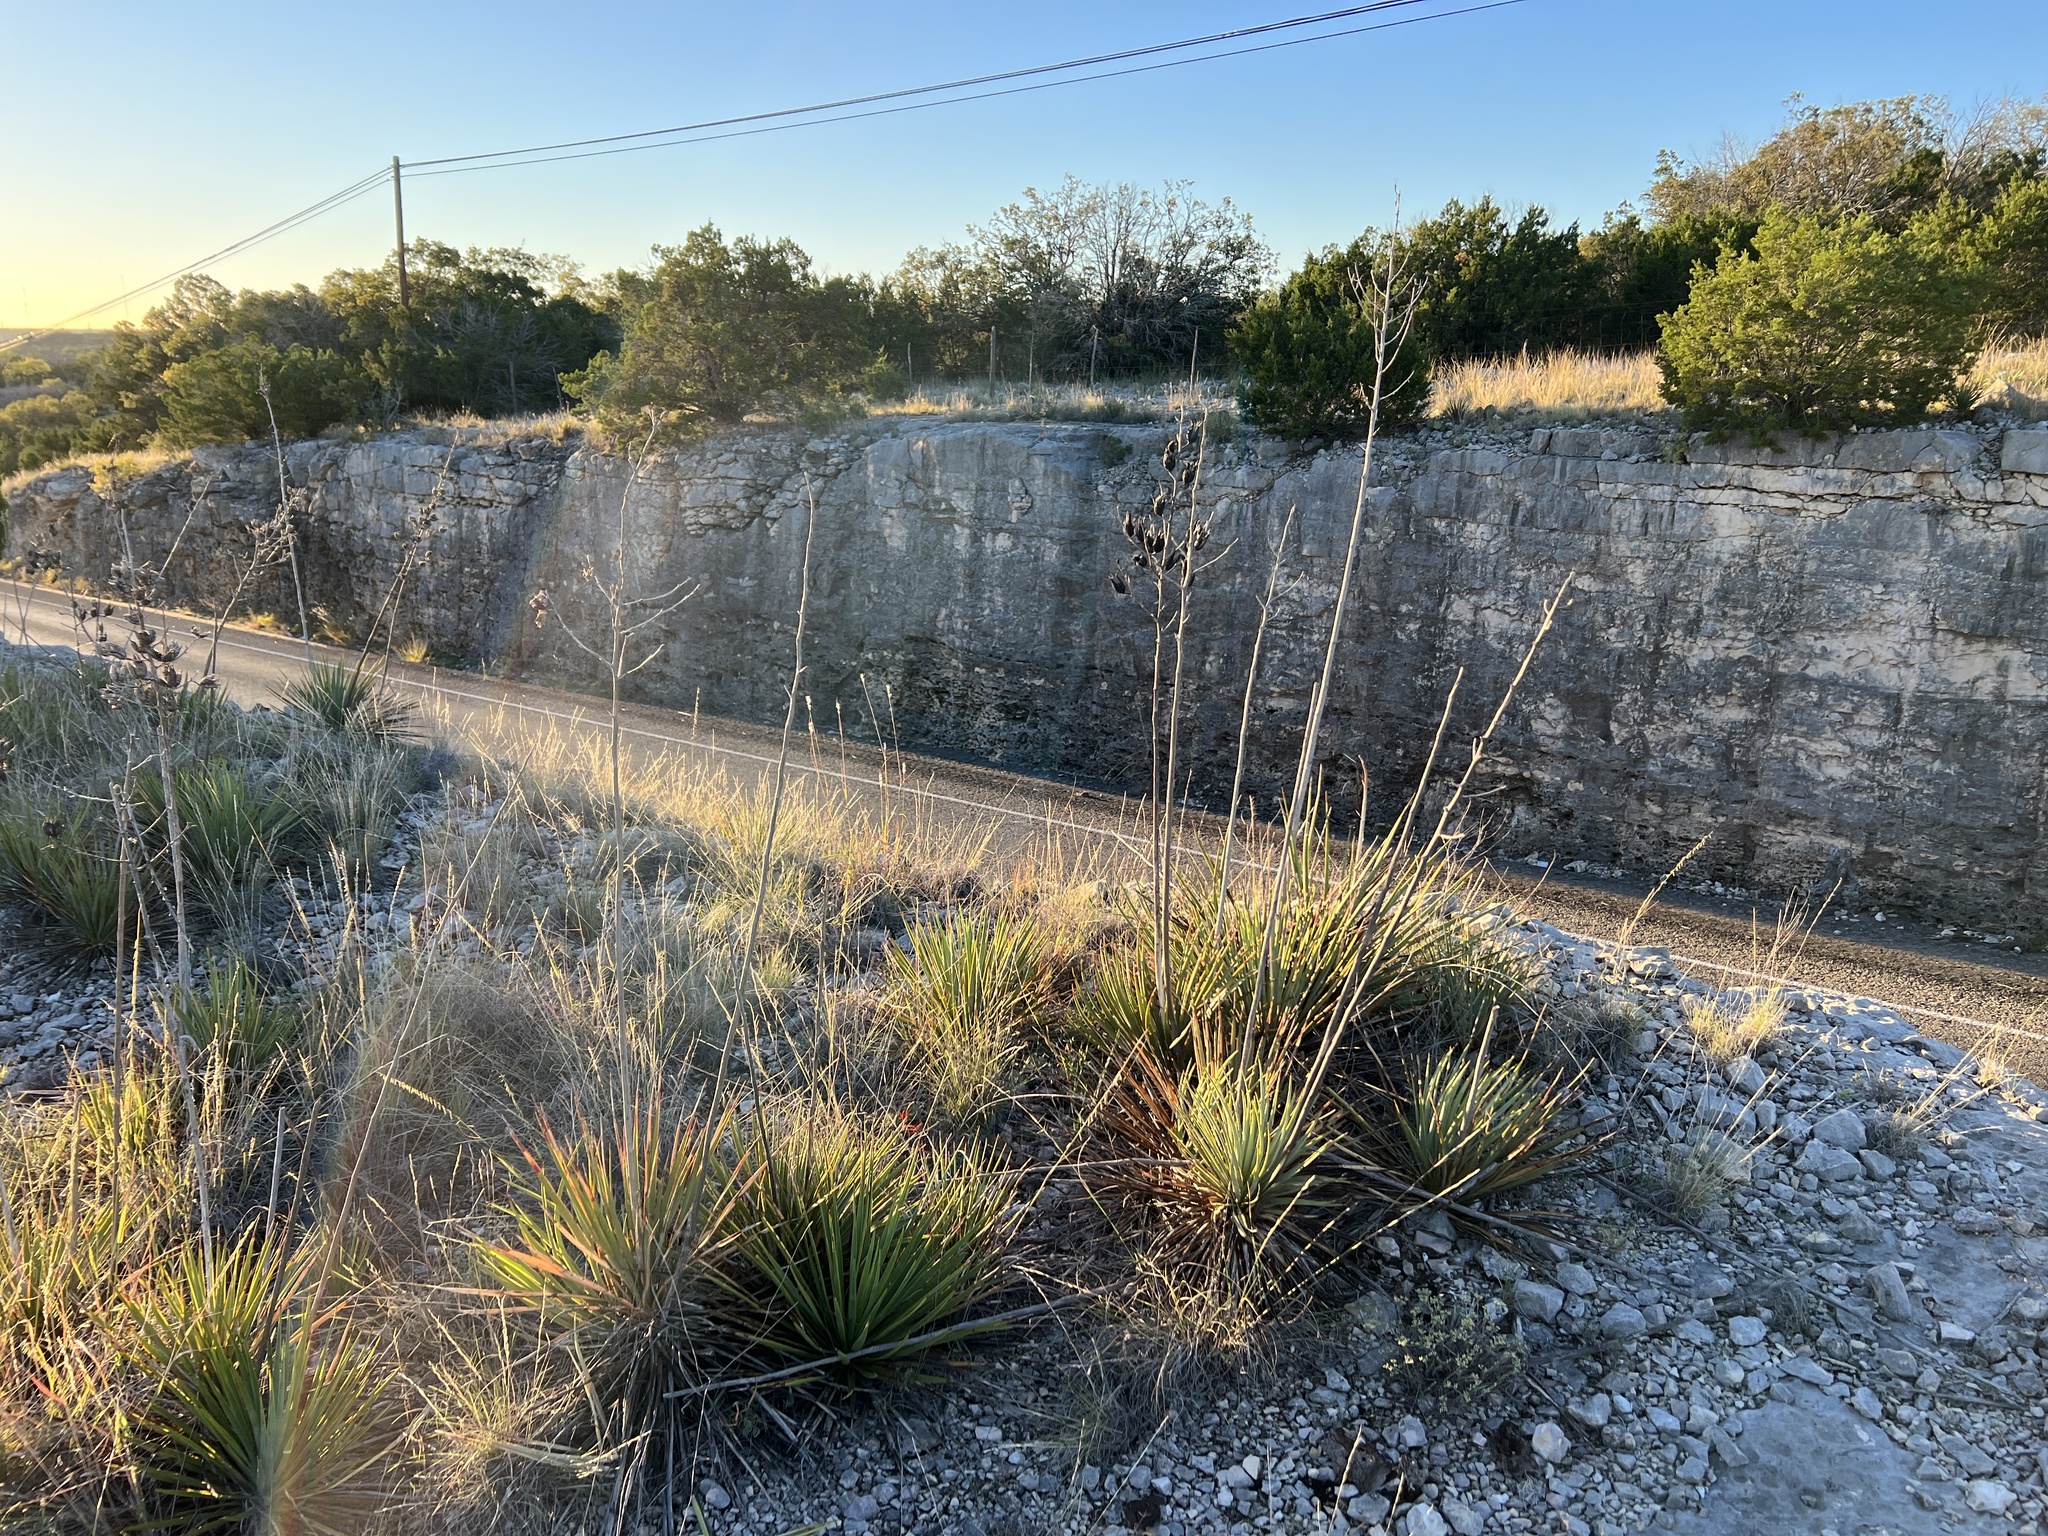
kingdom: Plantae
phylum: Tracheophyta
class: Liliopsida
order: Asparagales
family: Asparagaceae
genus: Yucca
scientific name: Yucca reverchonii
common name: San angelo yucca
